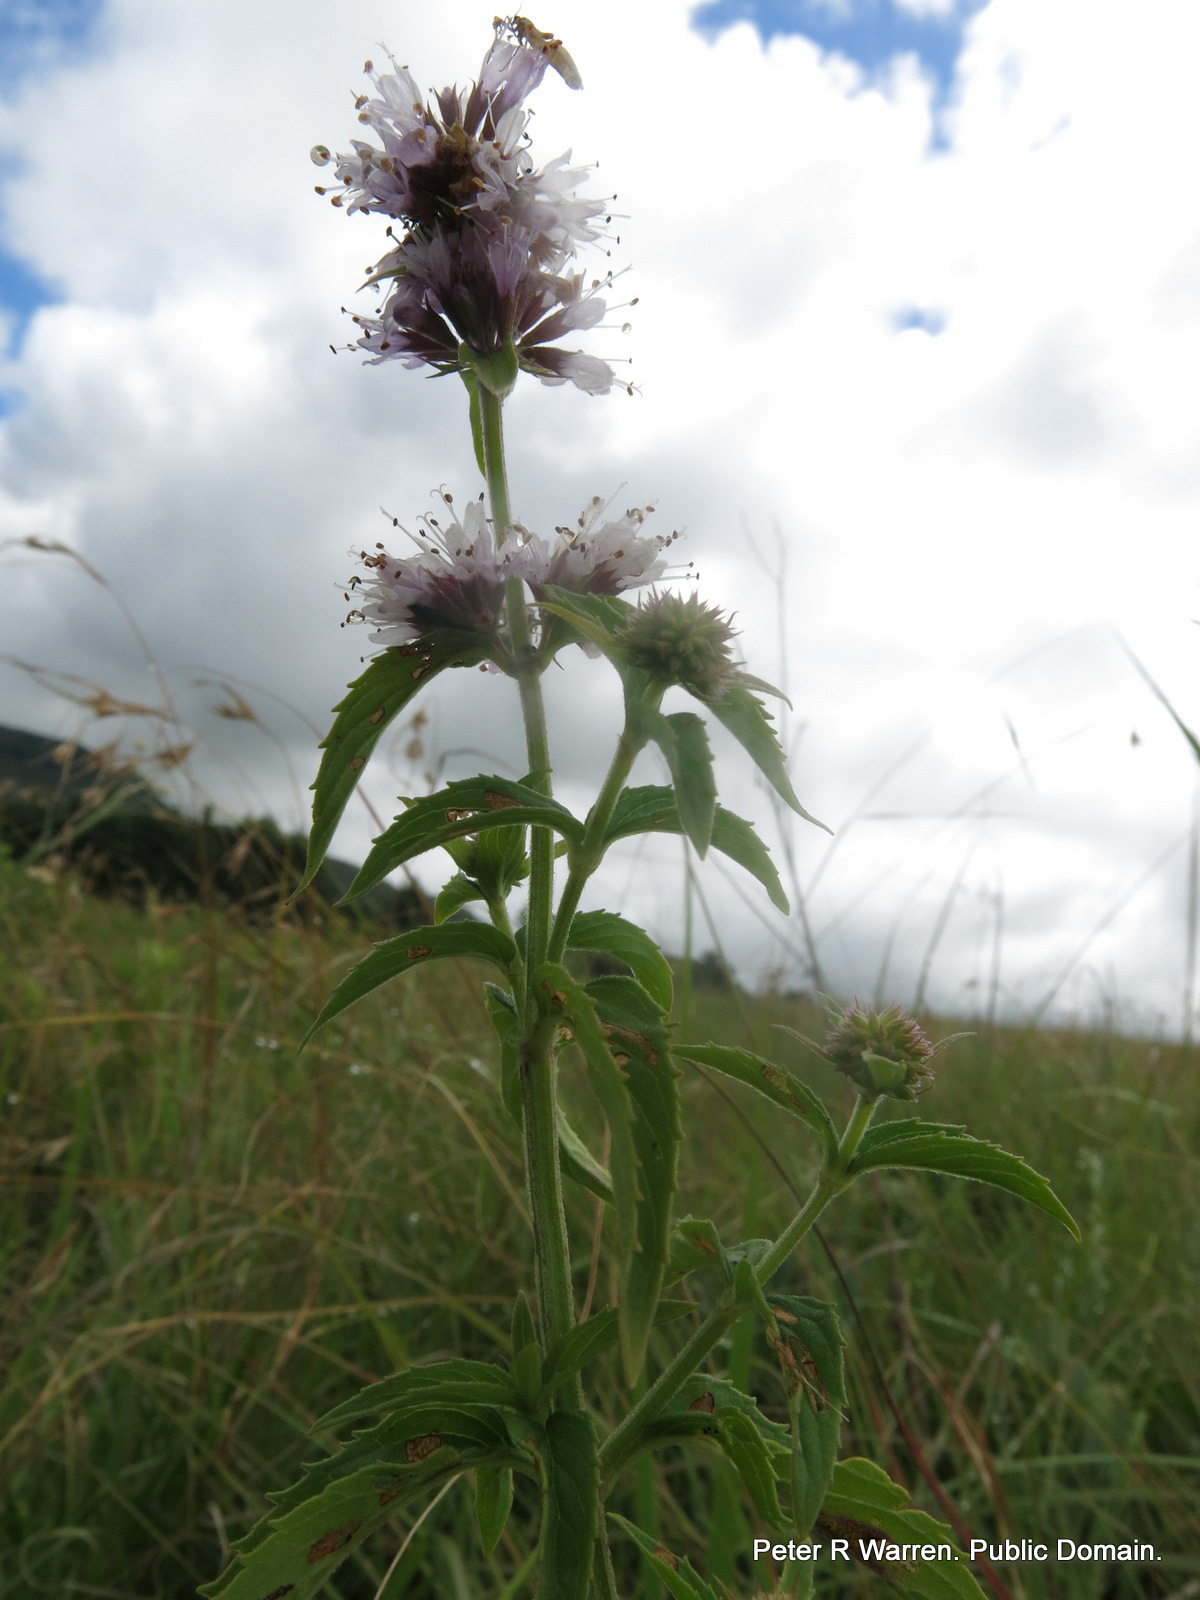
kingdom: Plantae
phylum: Tracheophyta
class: Magnoliopsida
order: Lamiales
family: Lamiaceae
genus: Mentha
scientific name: Mentha aquatica
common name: Water mint
